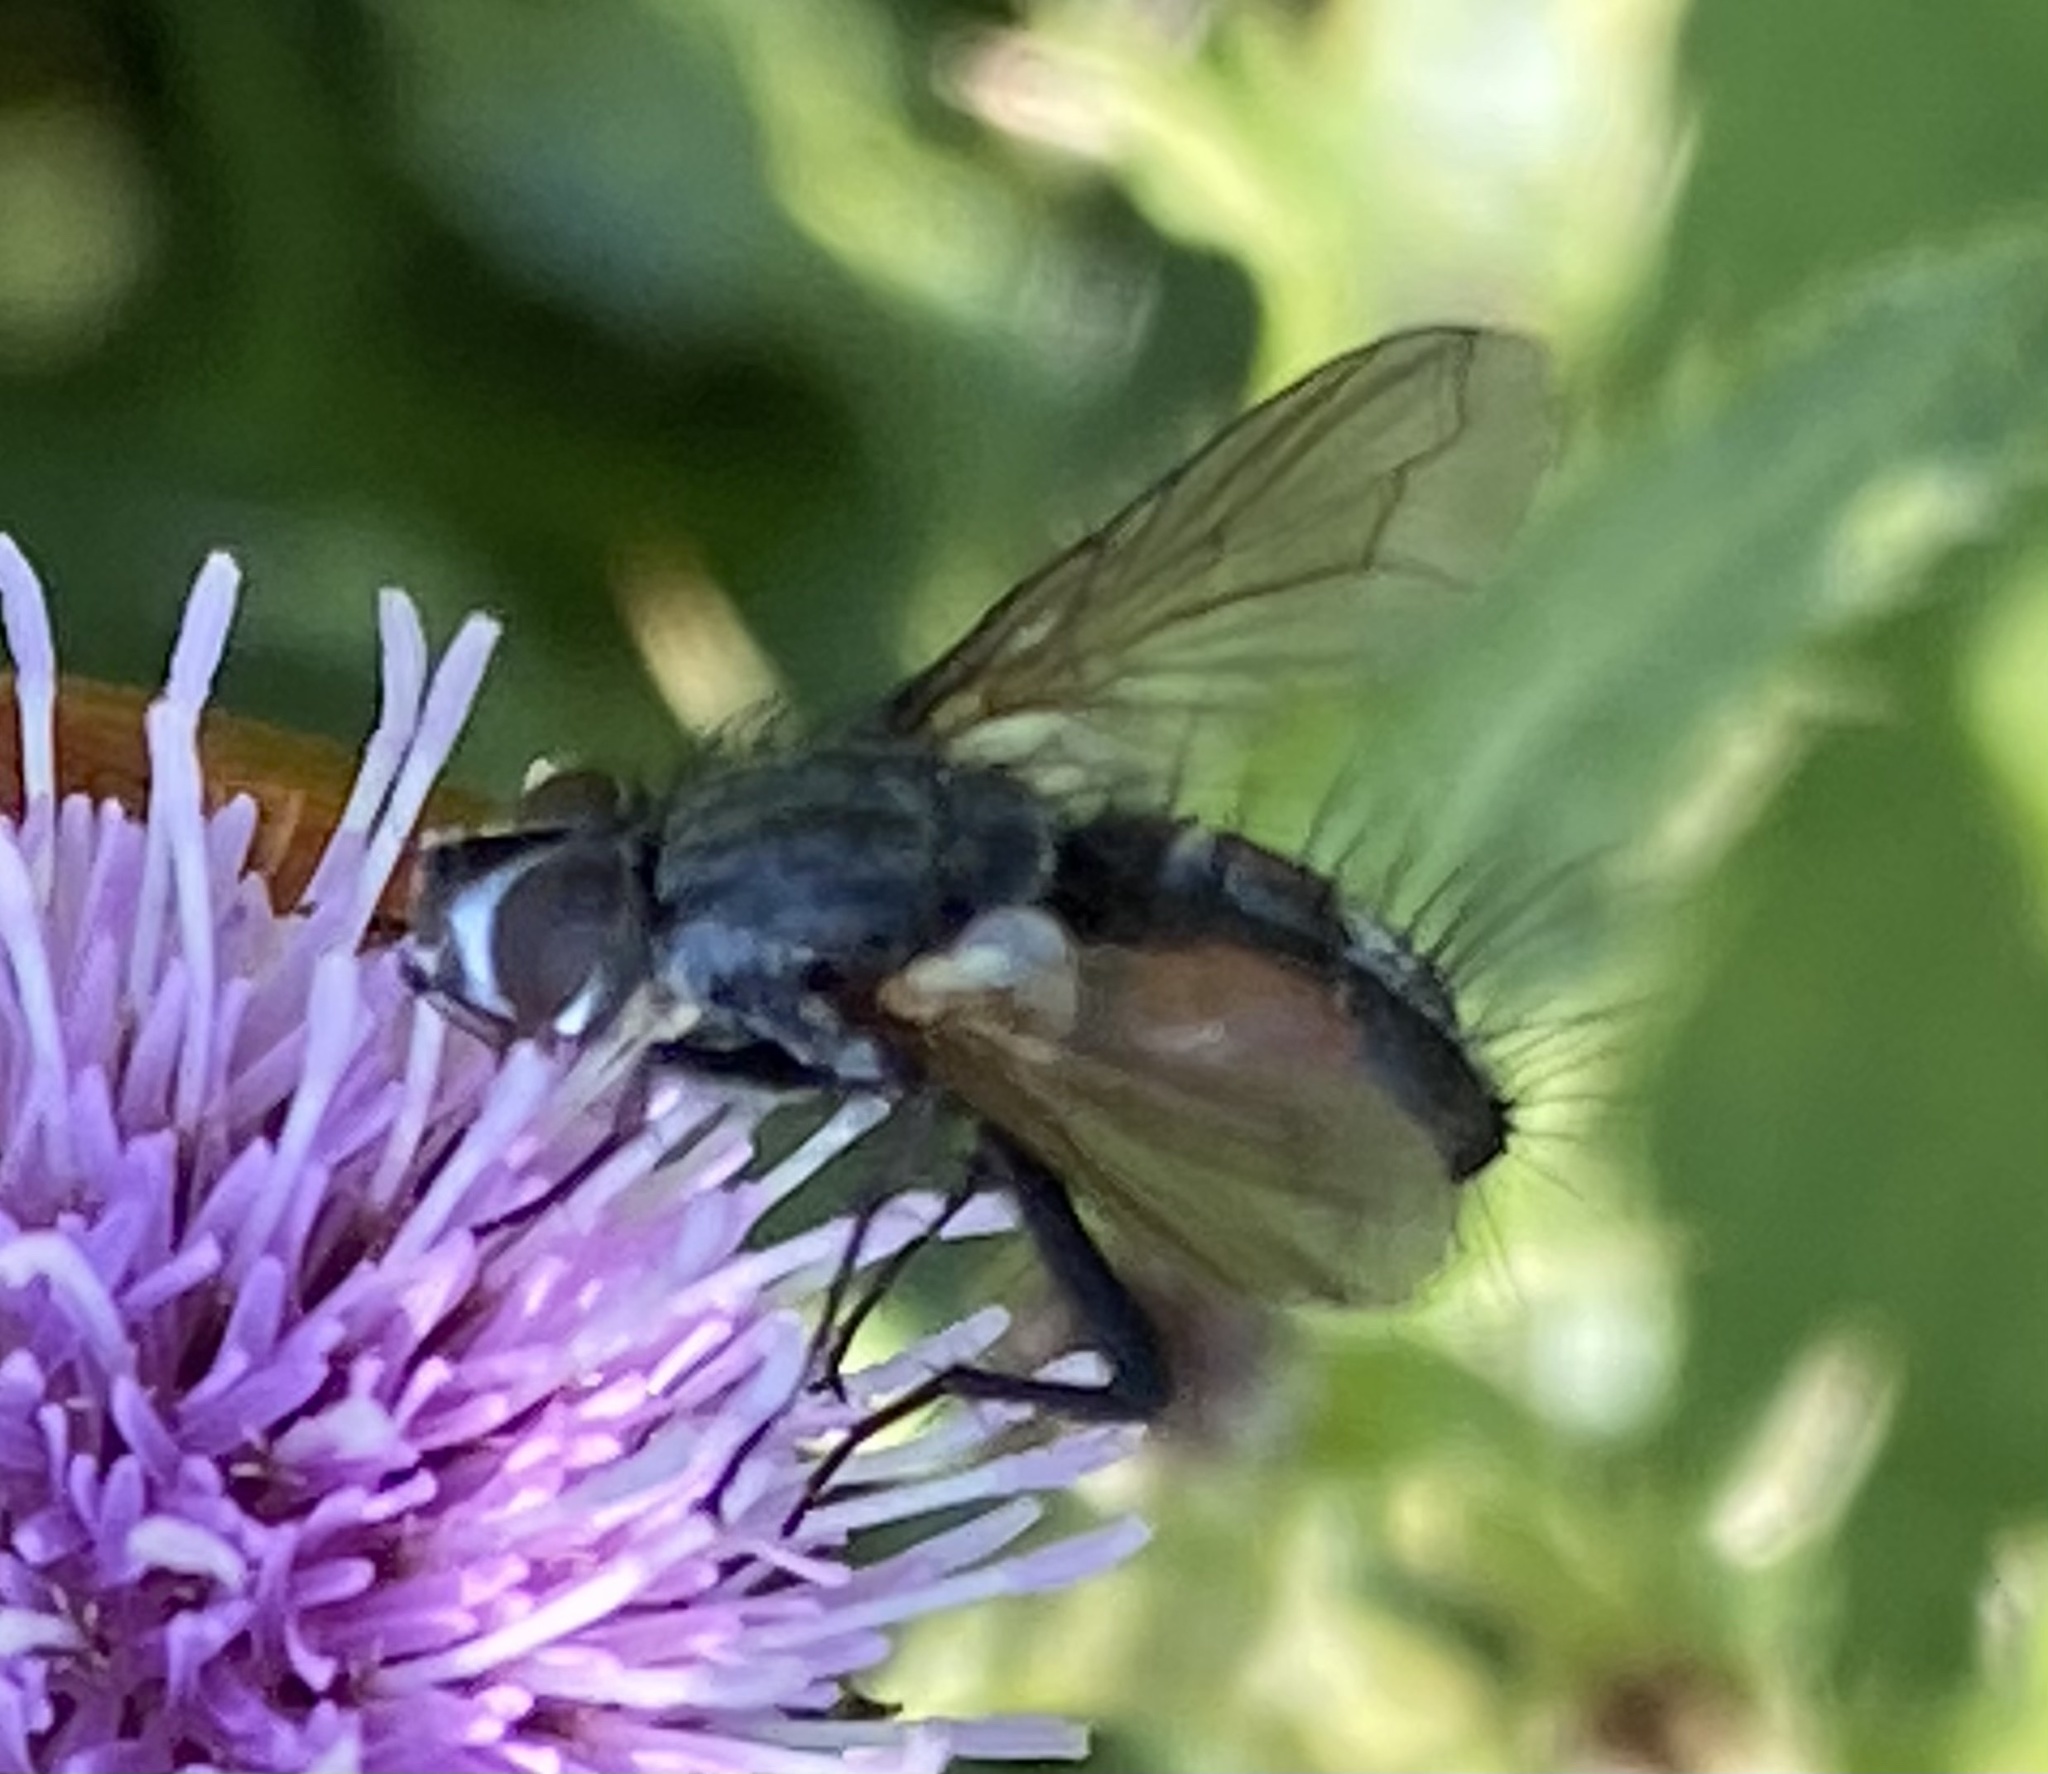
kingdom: Animalia
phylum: Arthropoda
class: Insecta
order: Diptera
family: Tachinidae
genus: Eriothrix
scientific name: Eriothrix rufomaculatus
